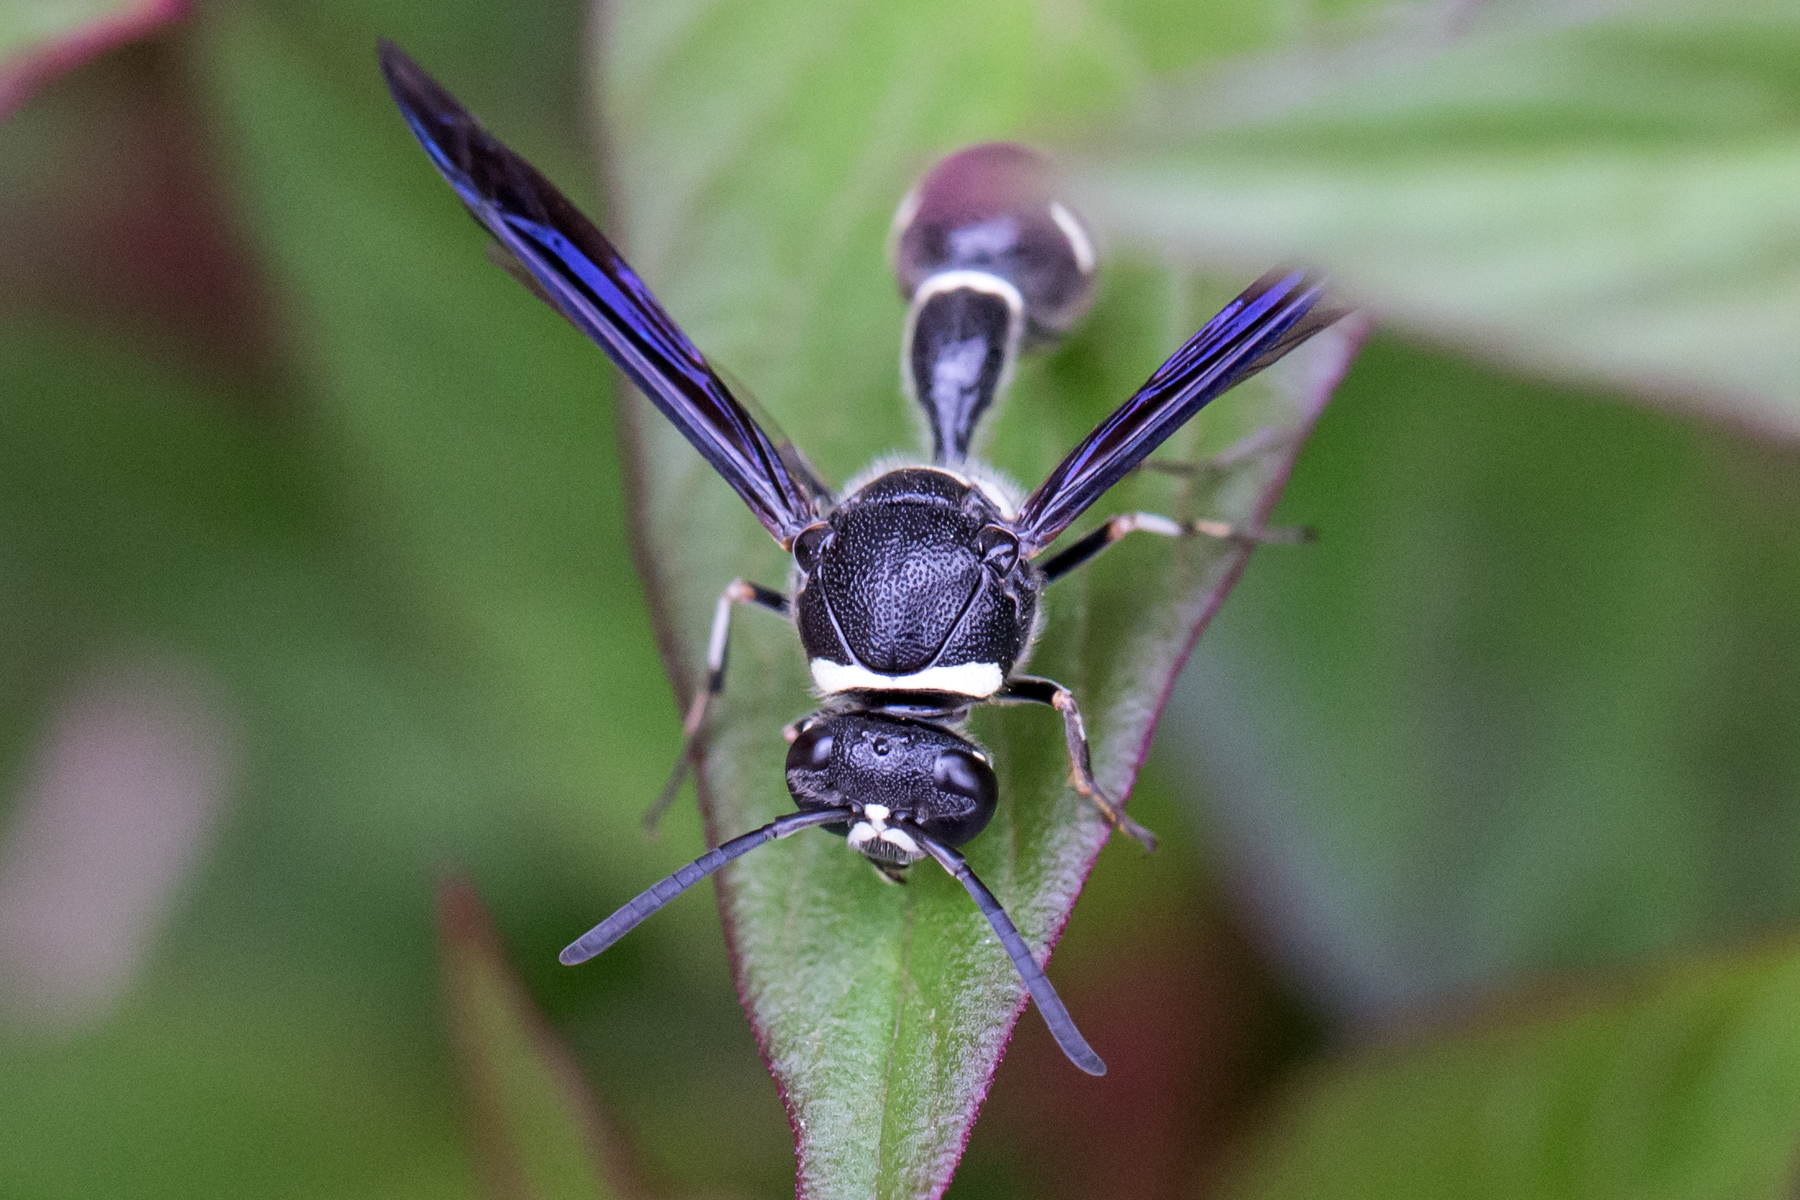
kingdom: Animalia
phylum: Arthropoda
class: Insecta
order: Hymenoptera
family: Vespidae
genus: Eumenes
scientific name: Eumenes fraternus
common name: Fraternal potter wasp
